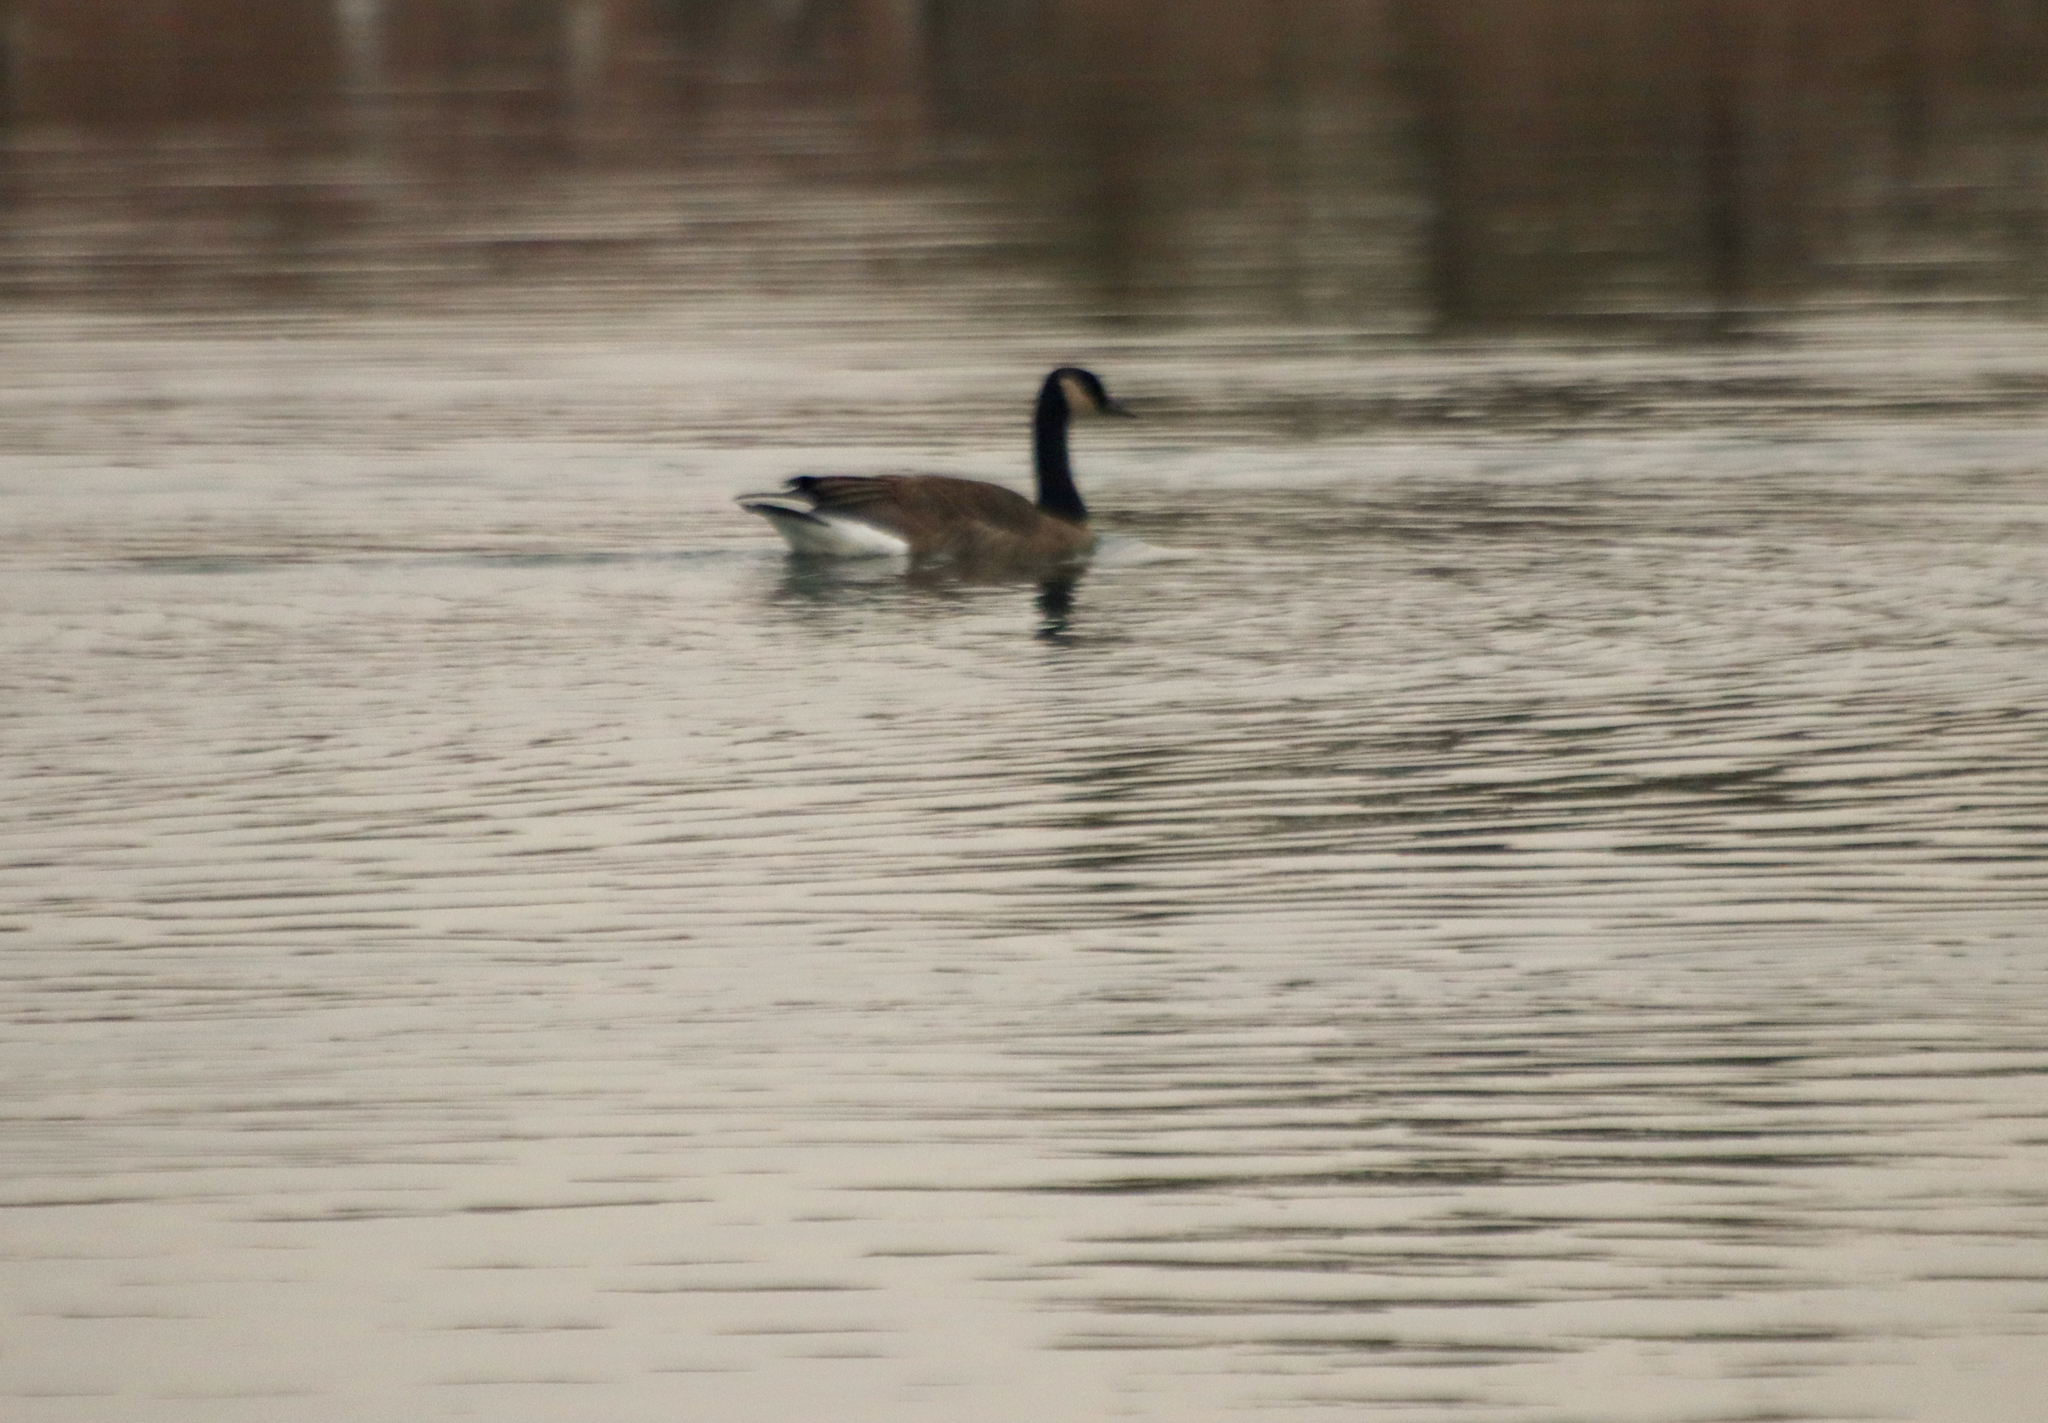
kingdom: Animalia
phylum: Chordata
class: Aves
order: Anseriformes
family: Anatidae
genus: Branta
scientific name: Branta canadensis
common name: Canada goose
